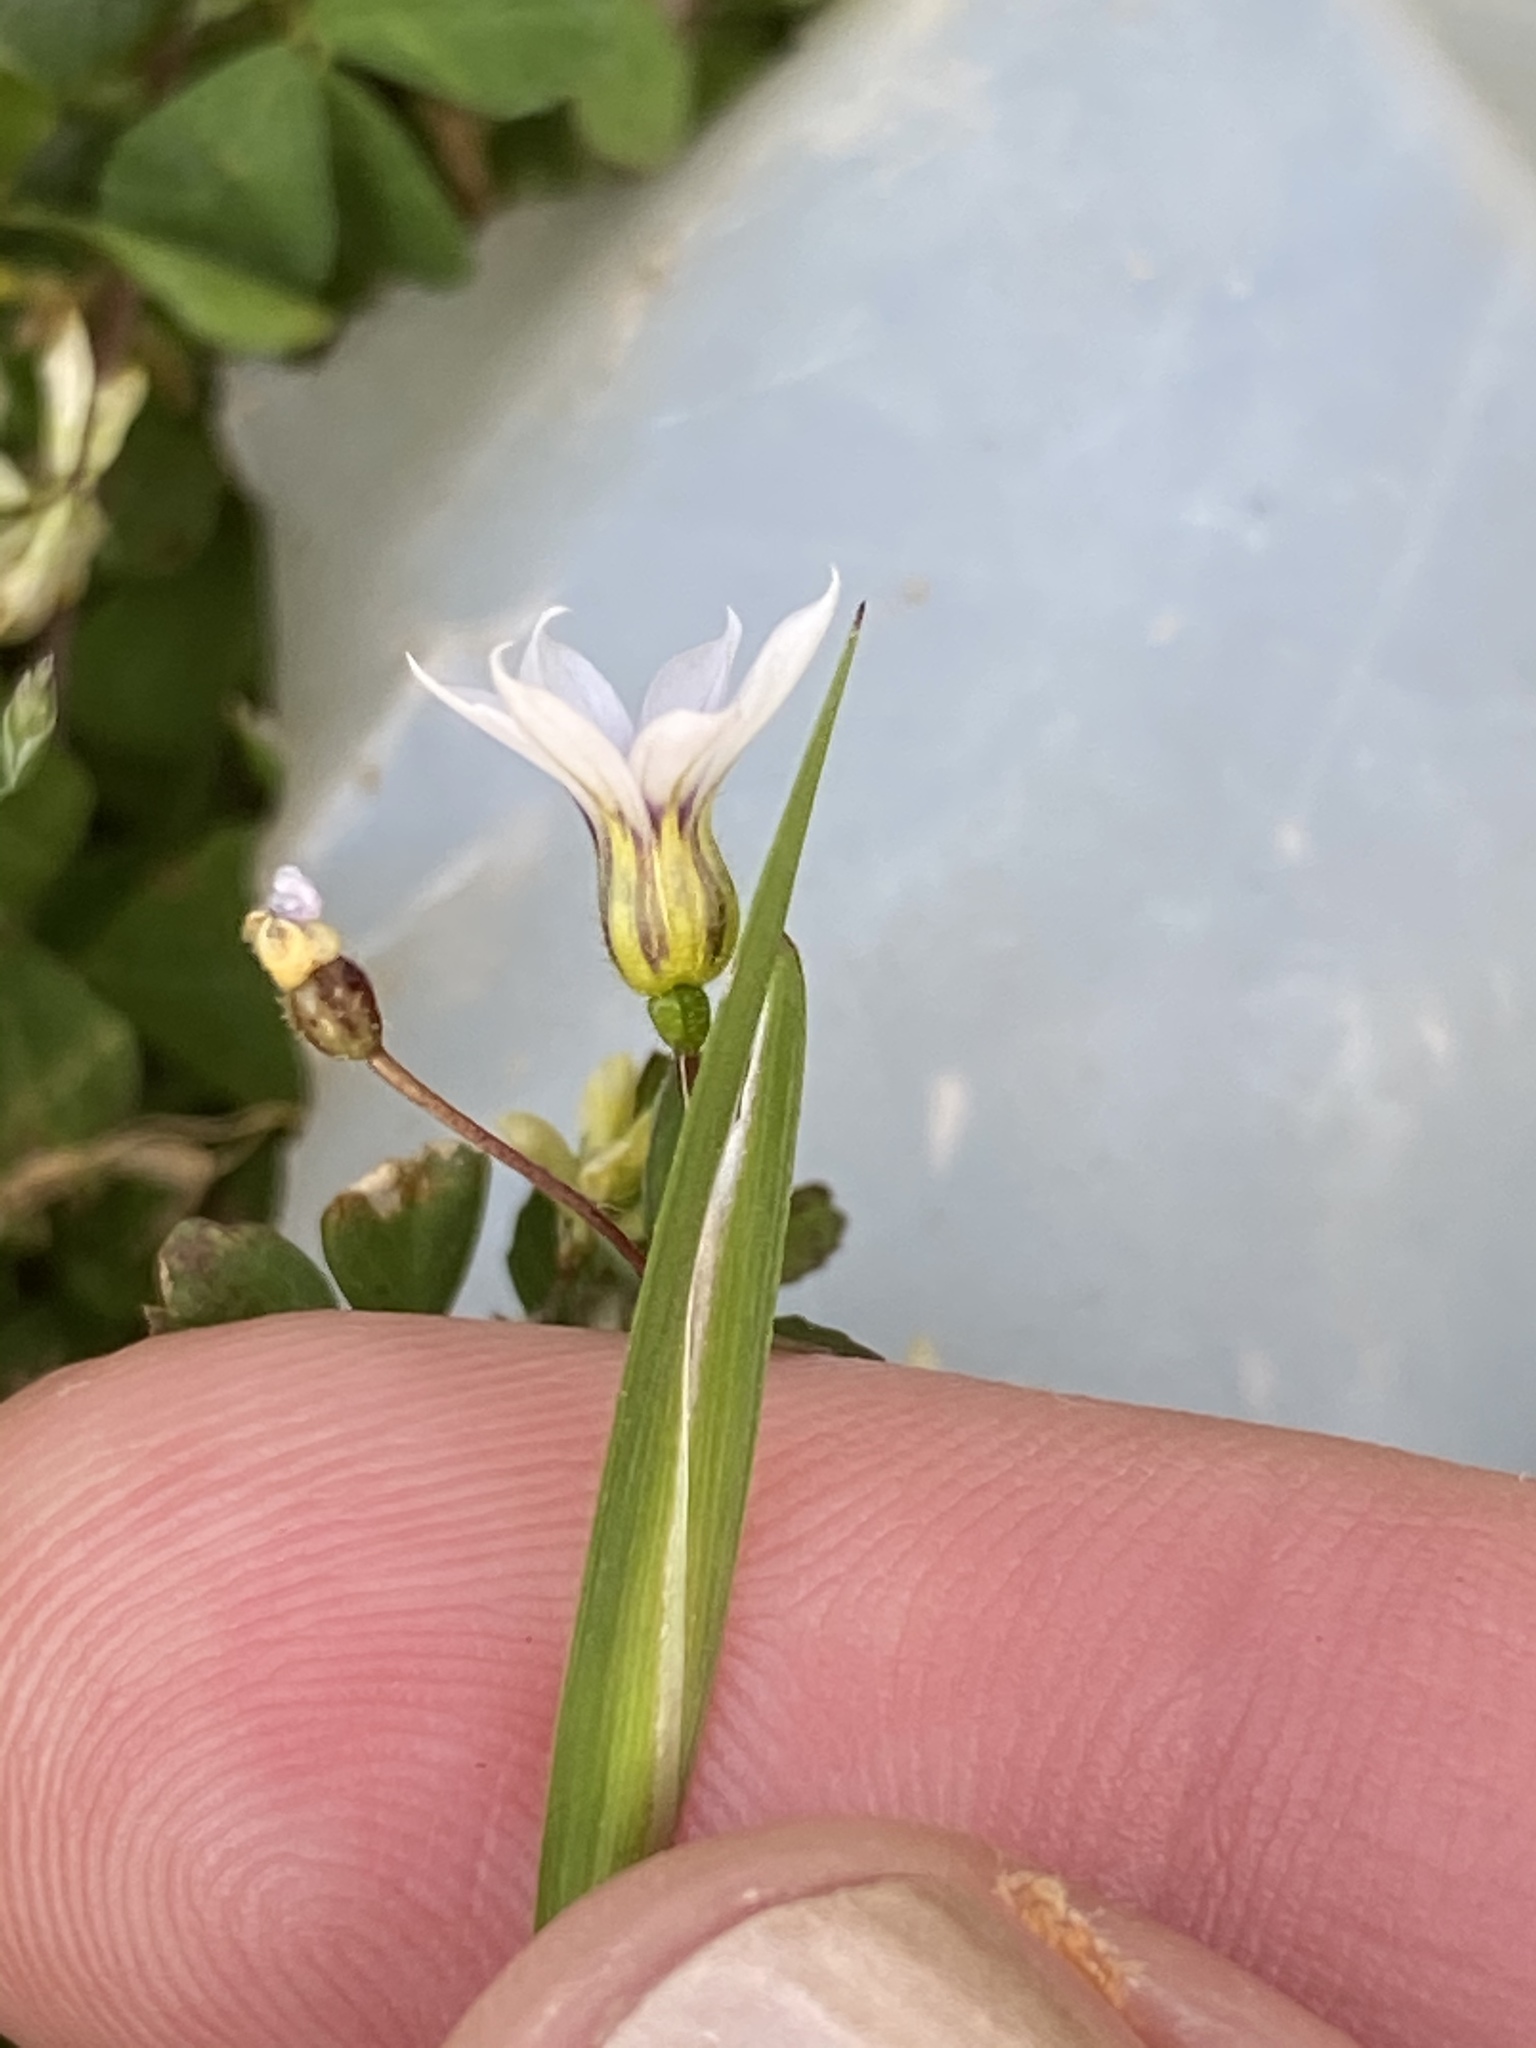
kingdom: Plantae
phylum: Tracheophyta
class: Liliopsida
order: Asparagales
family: Iridaceae
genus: Sisyrinchium
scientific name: Sisyrinchium micranthum
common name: Bermuda pigroot
